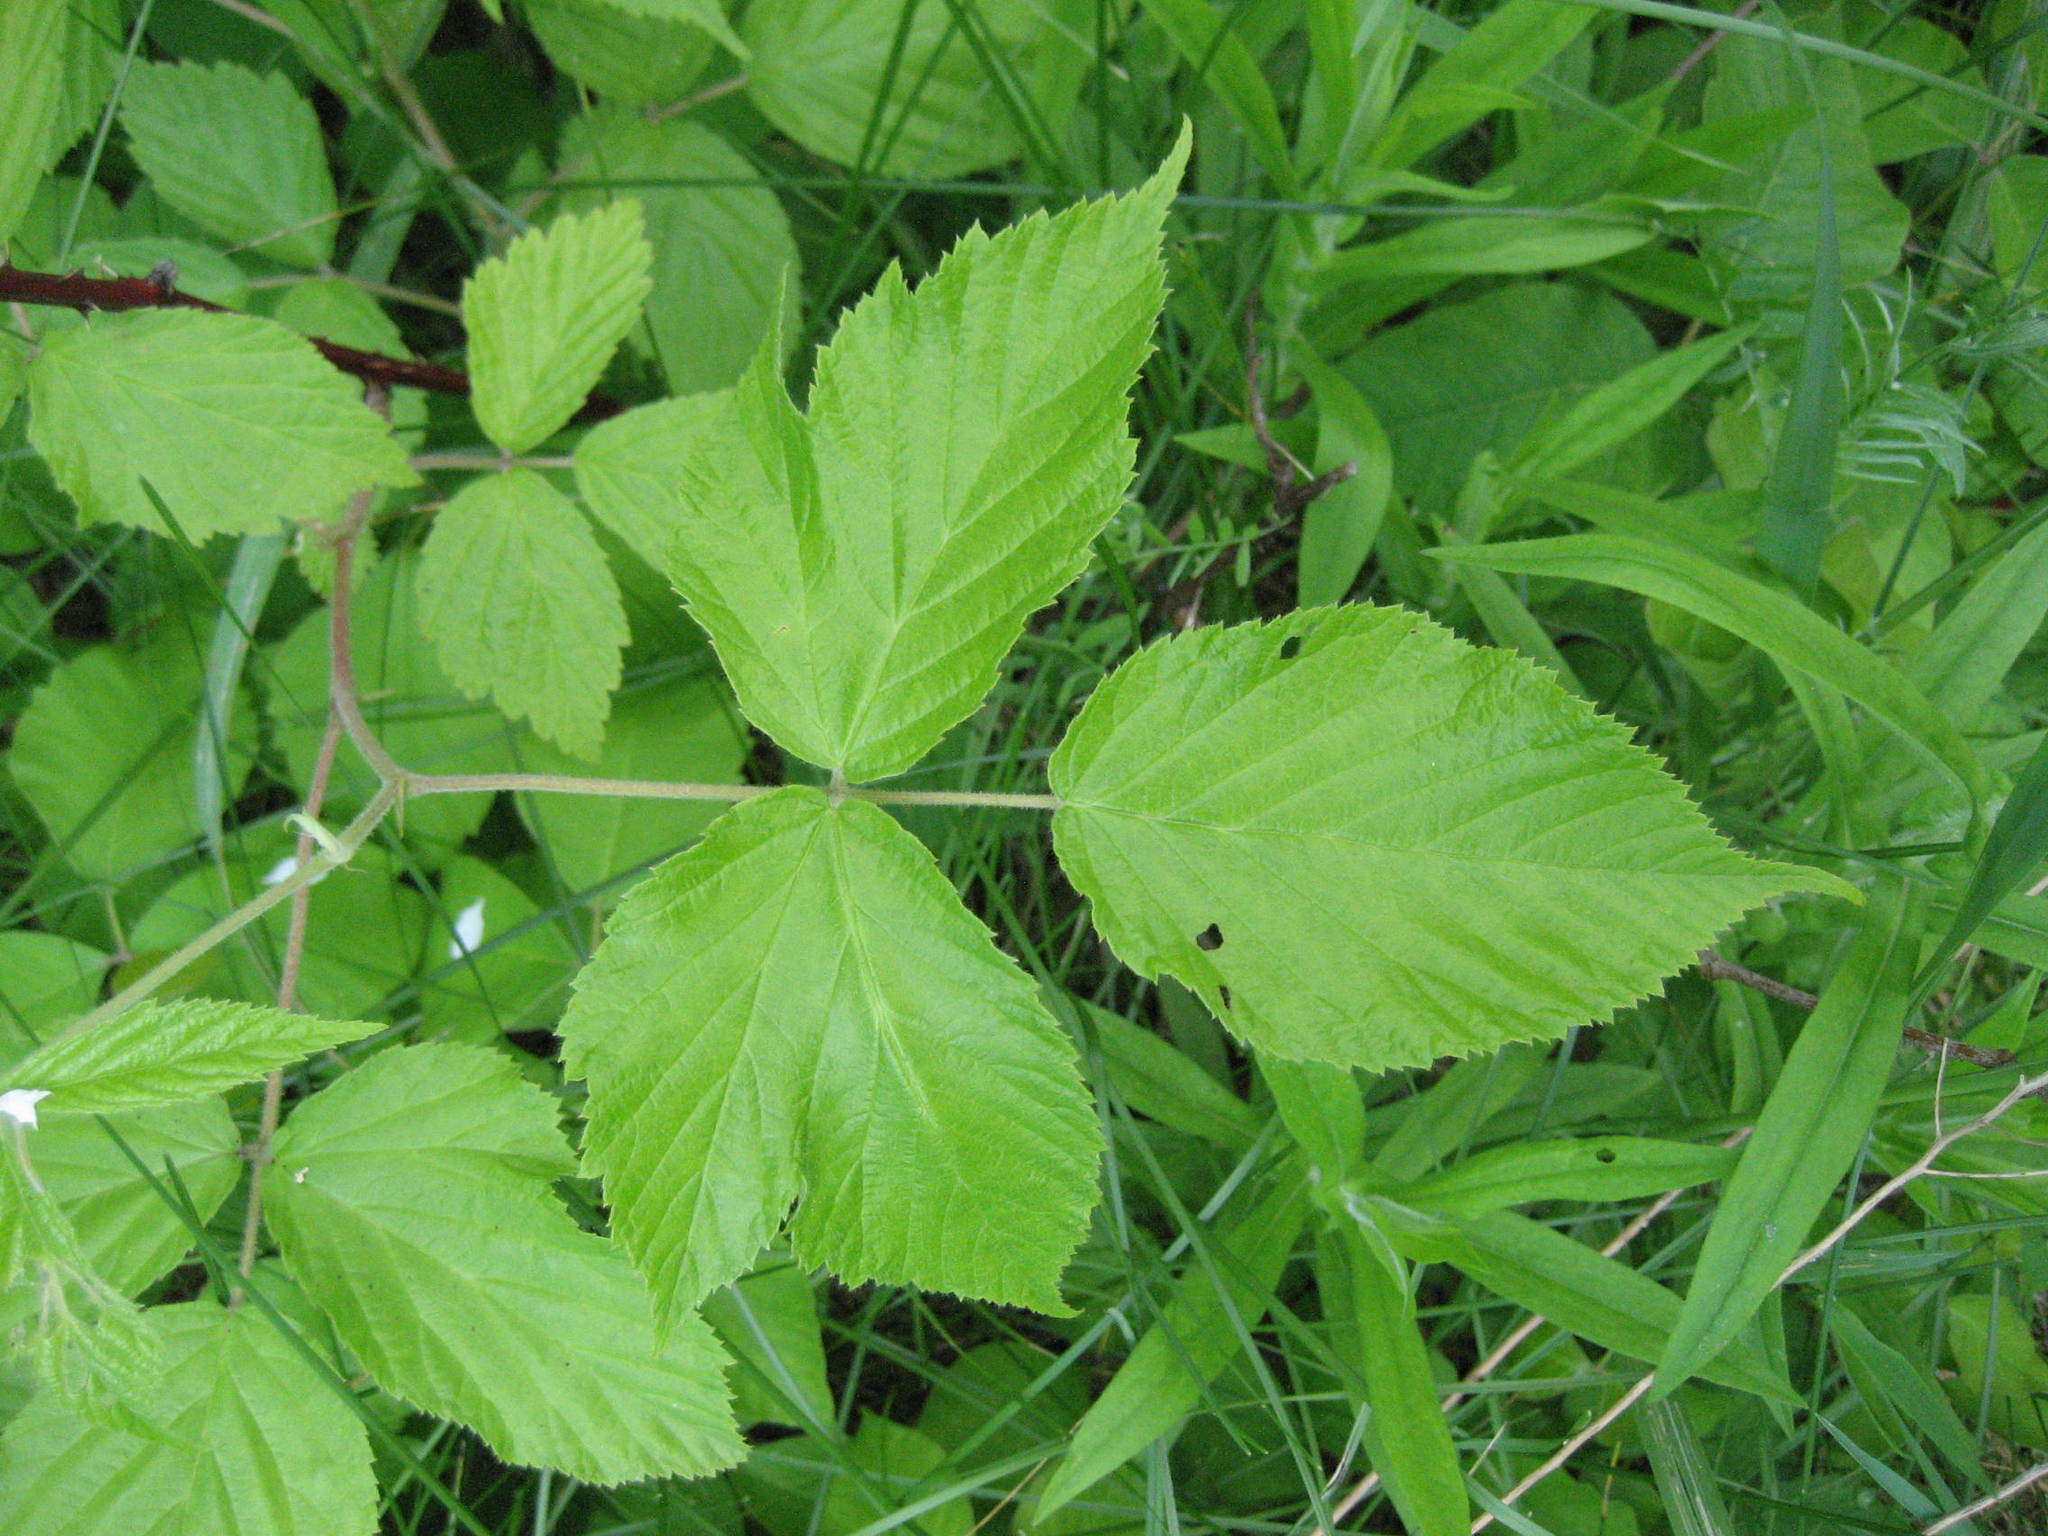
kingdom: Plantae
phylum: Tracheophyta
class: Magnoliopsida
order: Rosales
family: Rosaceae
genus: Rubus
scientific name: Rubus allegheniensis
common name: Allegheny blackberry
